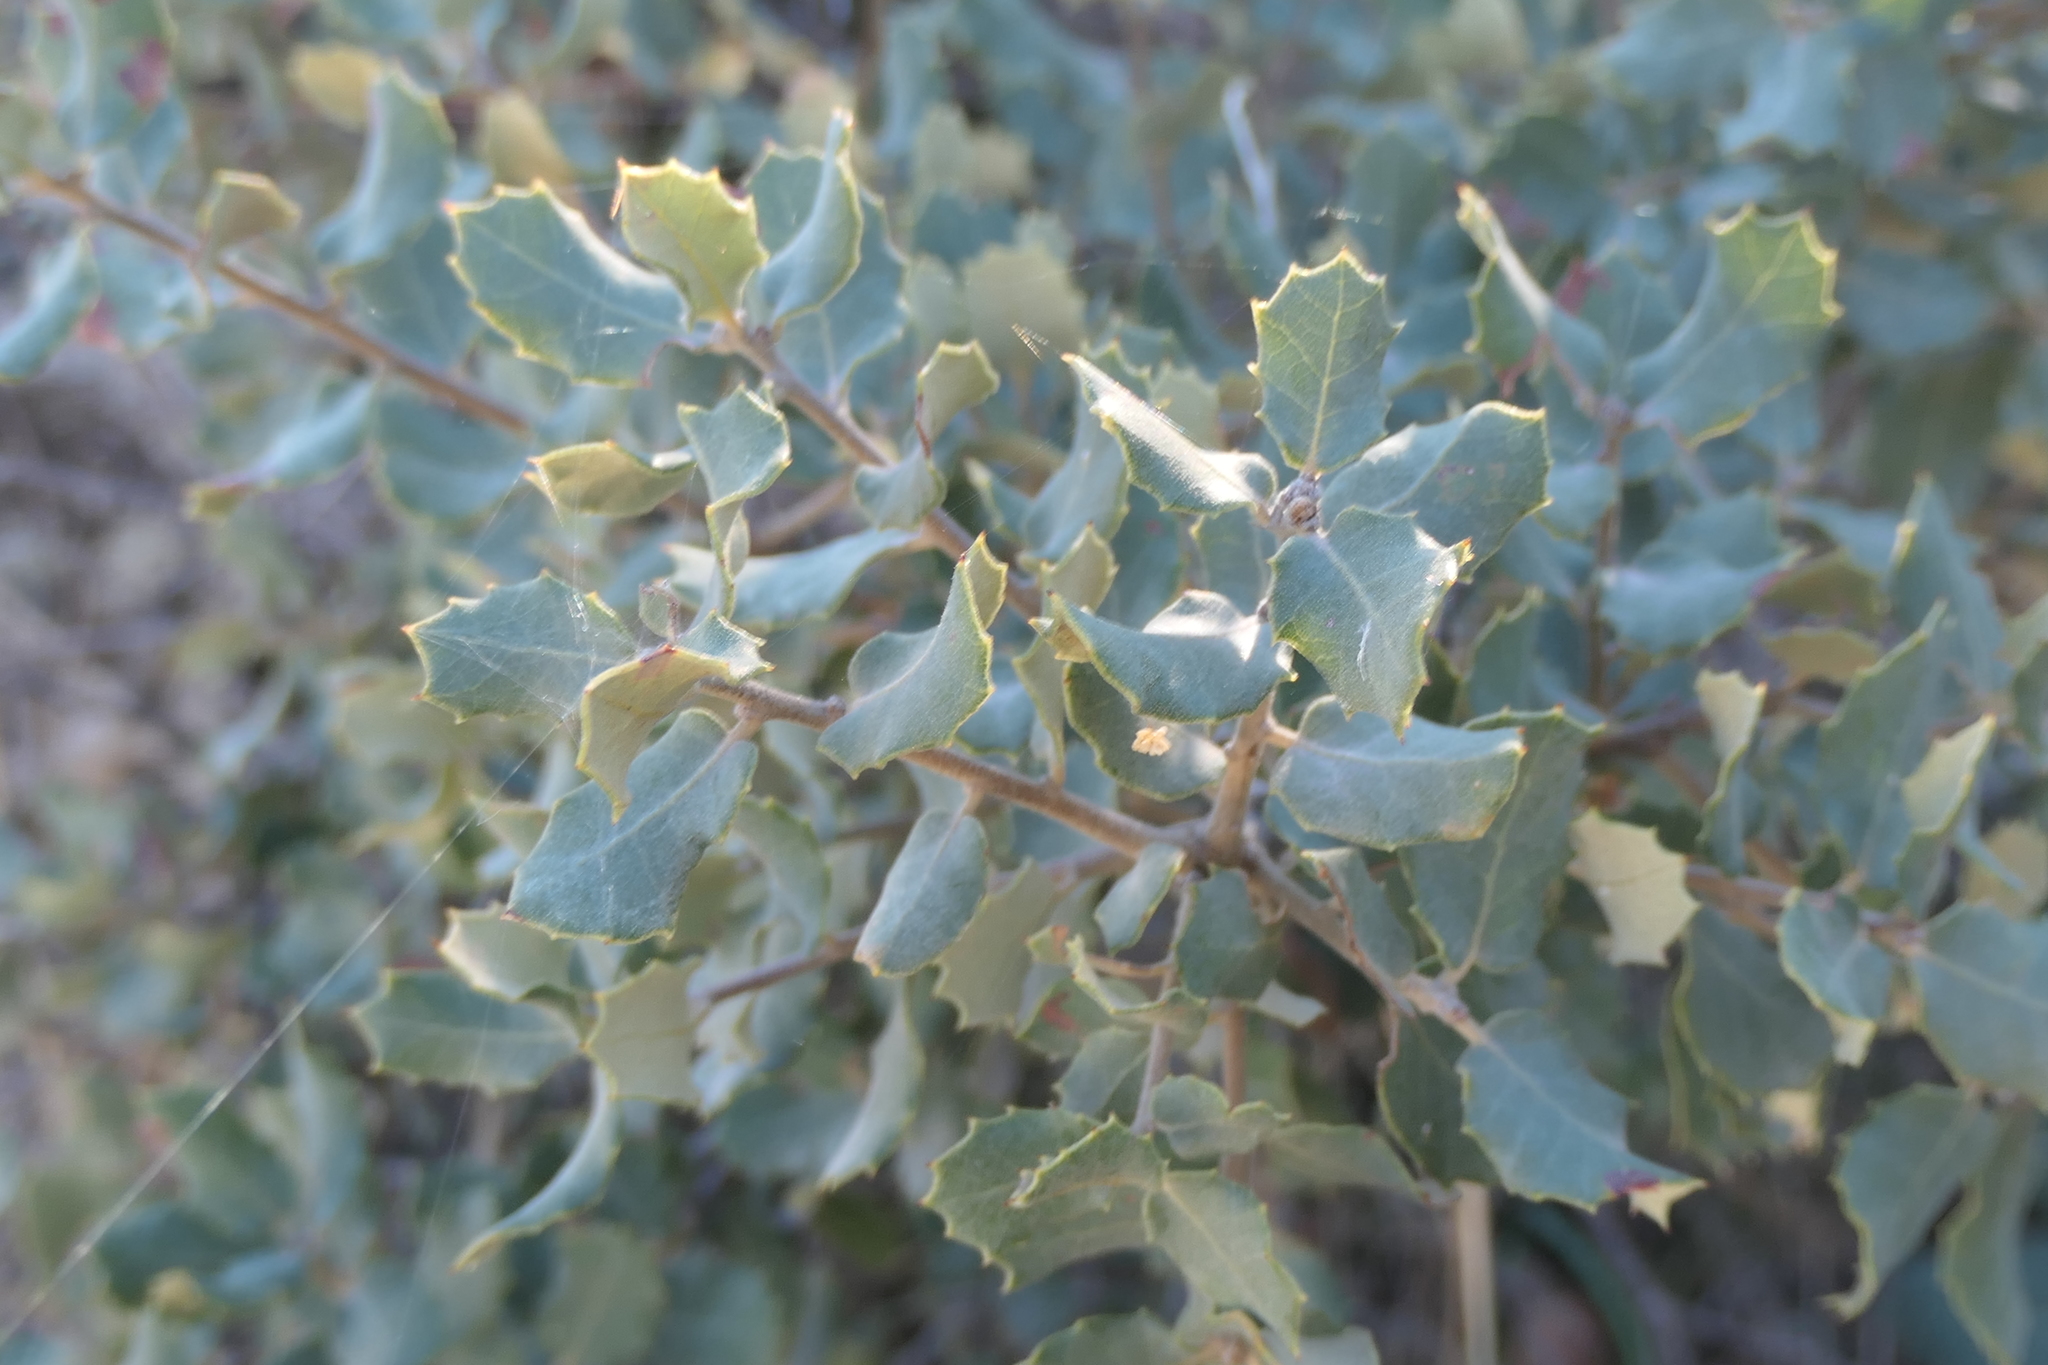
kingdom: Plantae
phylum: Tracheophyta
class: Magnoliopsida
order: Fagales
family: Fagaceae
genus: Quercus
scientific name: Quercus rotundifolia
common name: Holm oak
